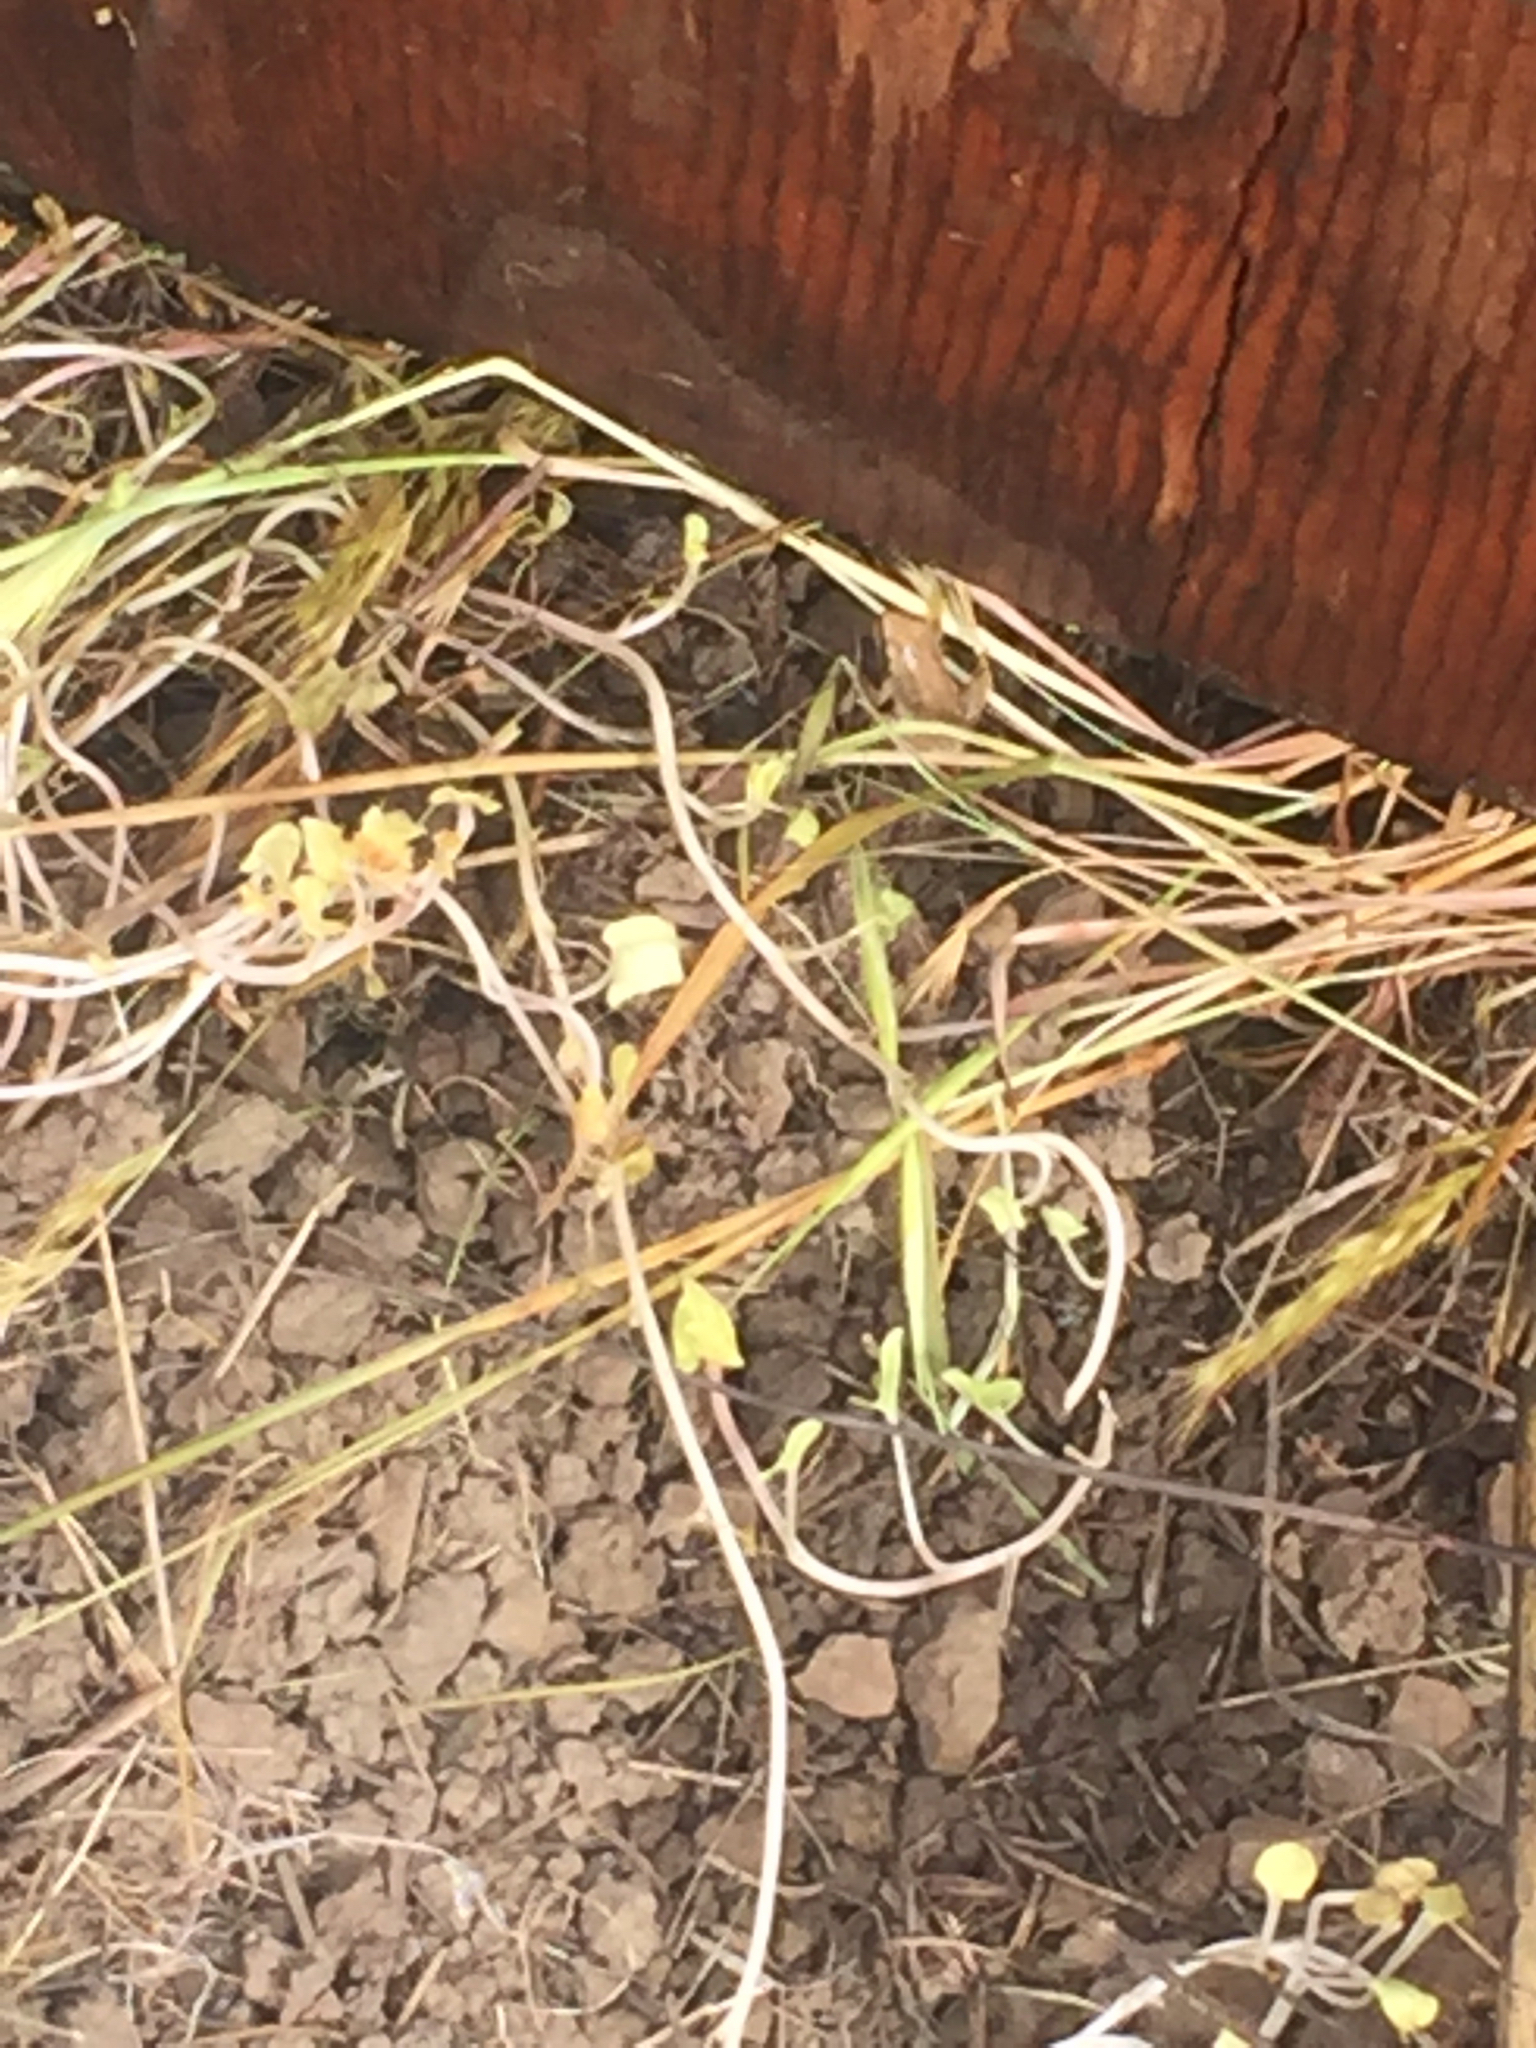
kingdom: Animalia
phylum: Chordata
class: Amphibia
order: Anura
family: Hylidae
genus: Pseudacris
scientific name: Pseudacris regilla
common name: Pacific chorus frog
